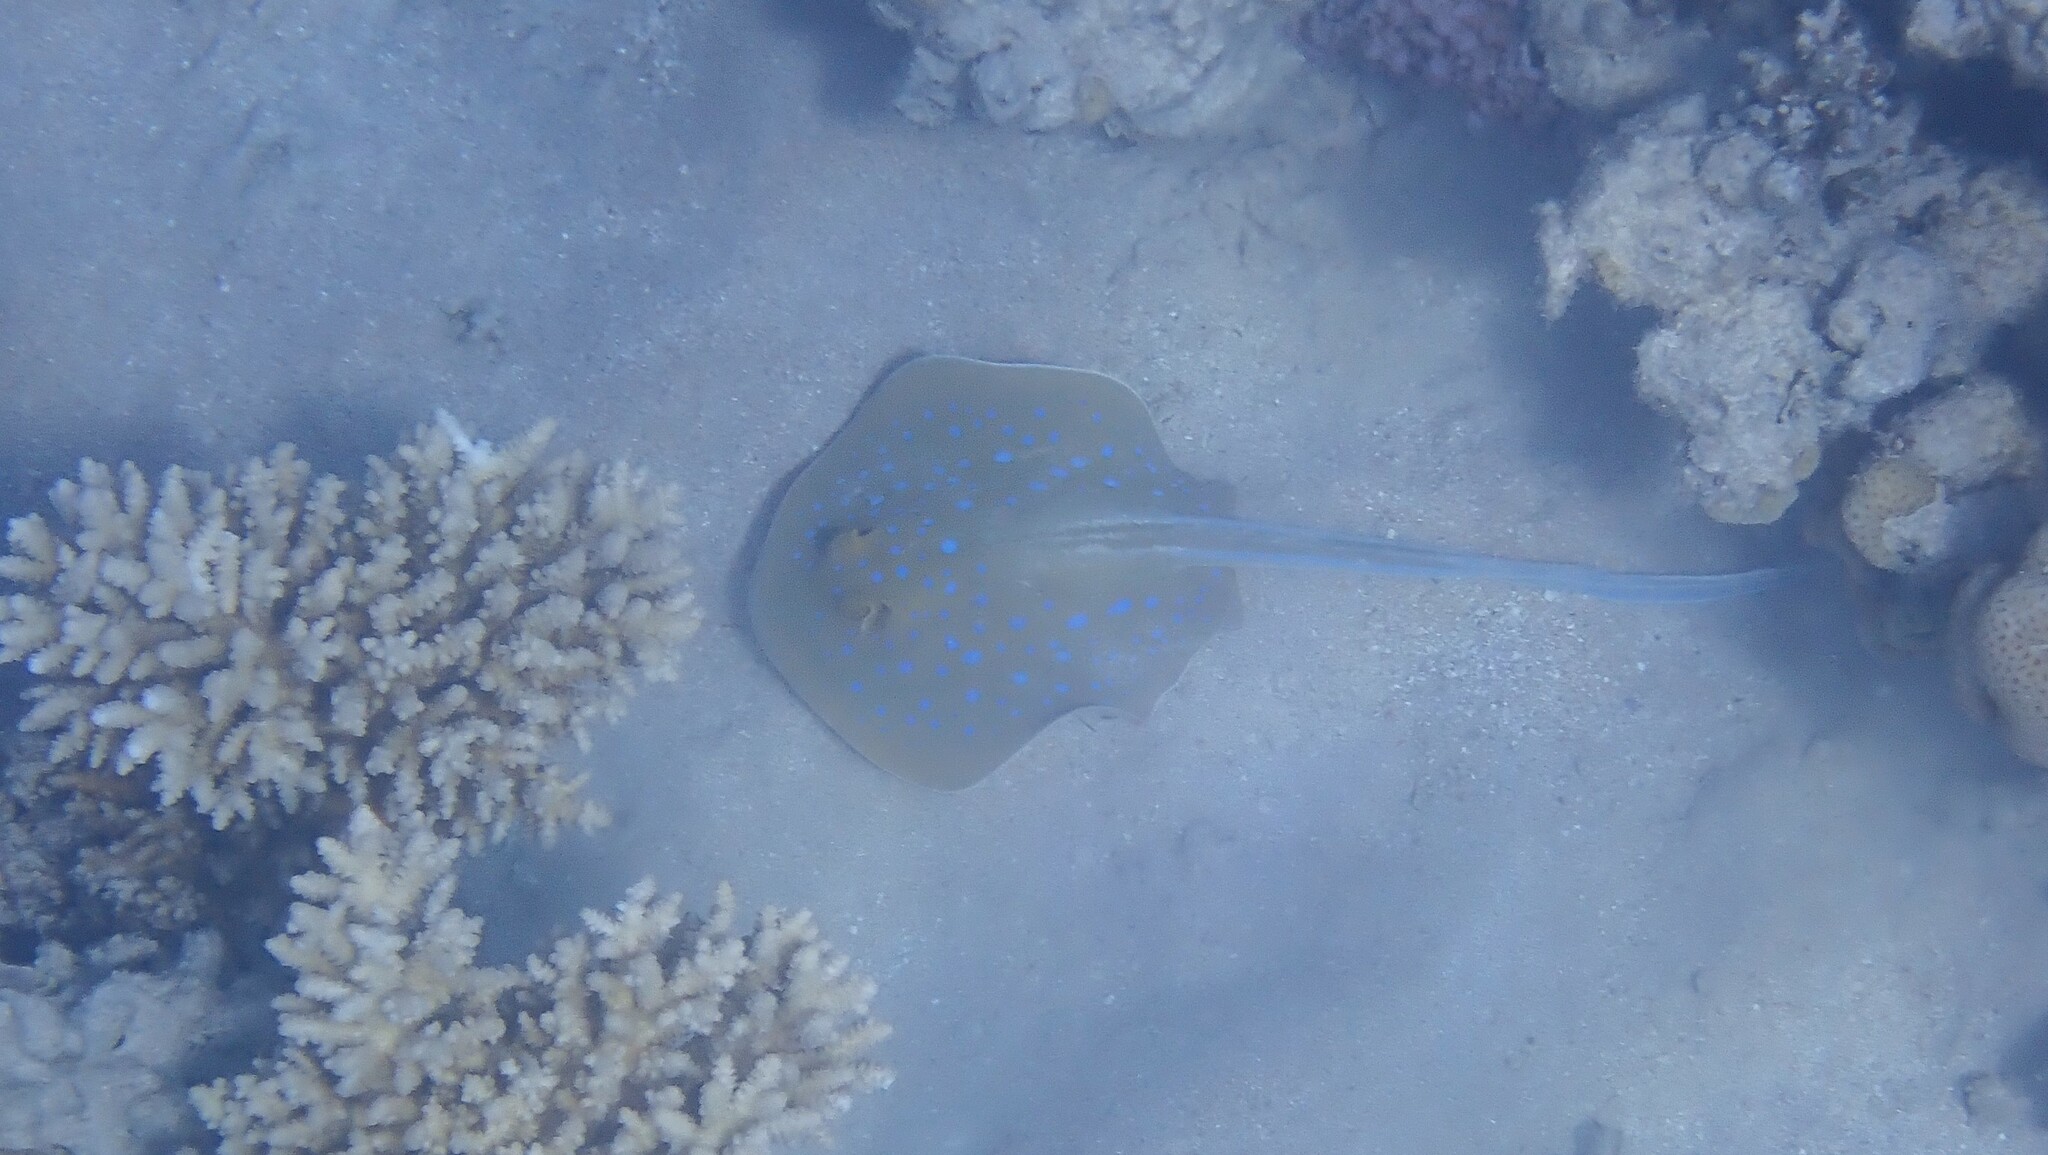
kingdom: Animalia
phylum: Chordata
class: Elasmobranchii
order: Myliobatiformes
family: Dasyatidae
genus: Taeniura
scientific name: Taeniura lymma
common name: Bluespotted ribbontail ray
